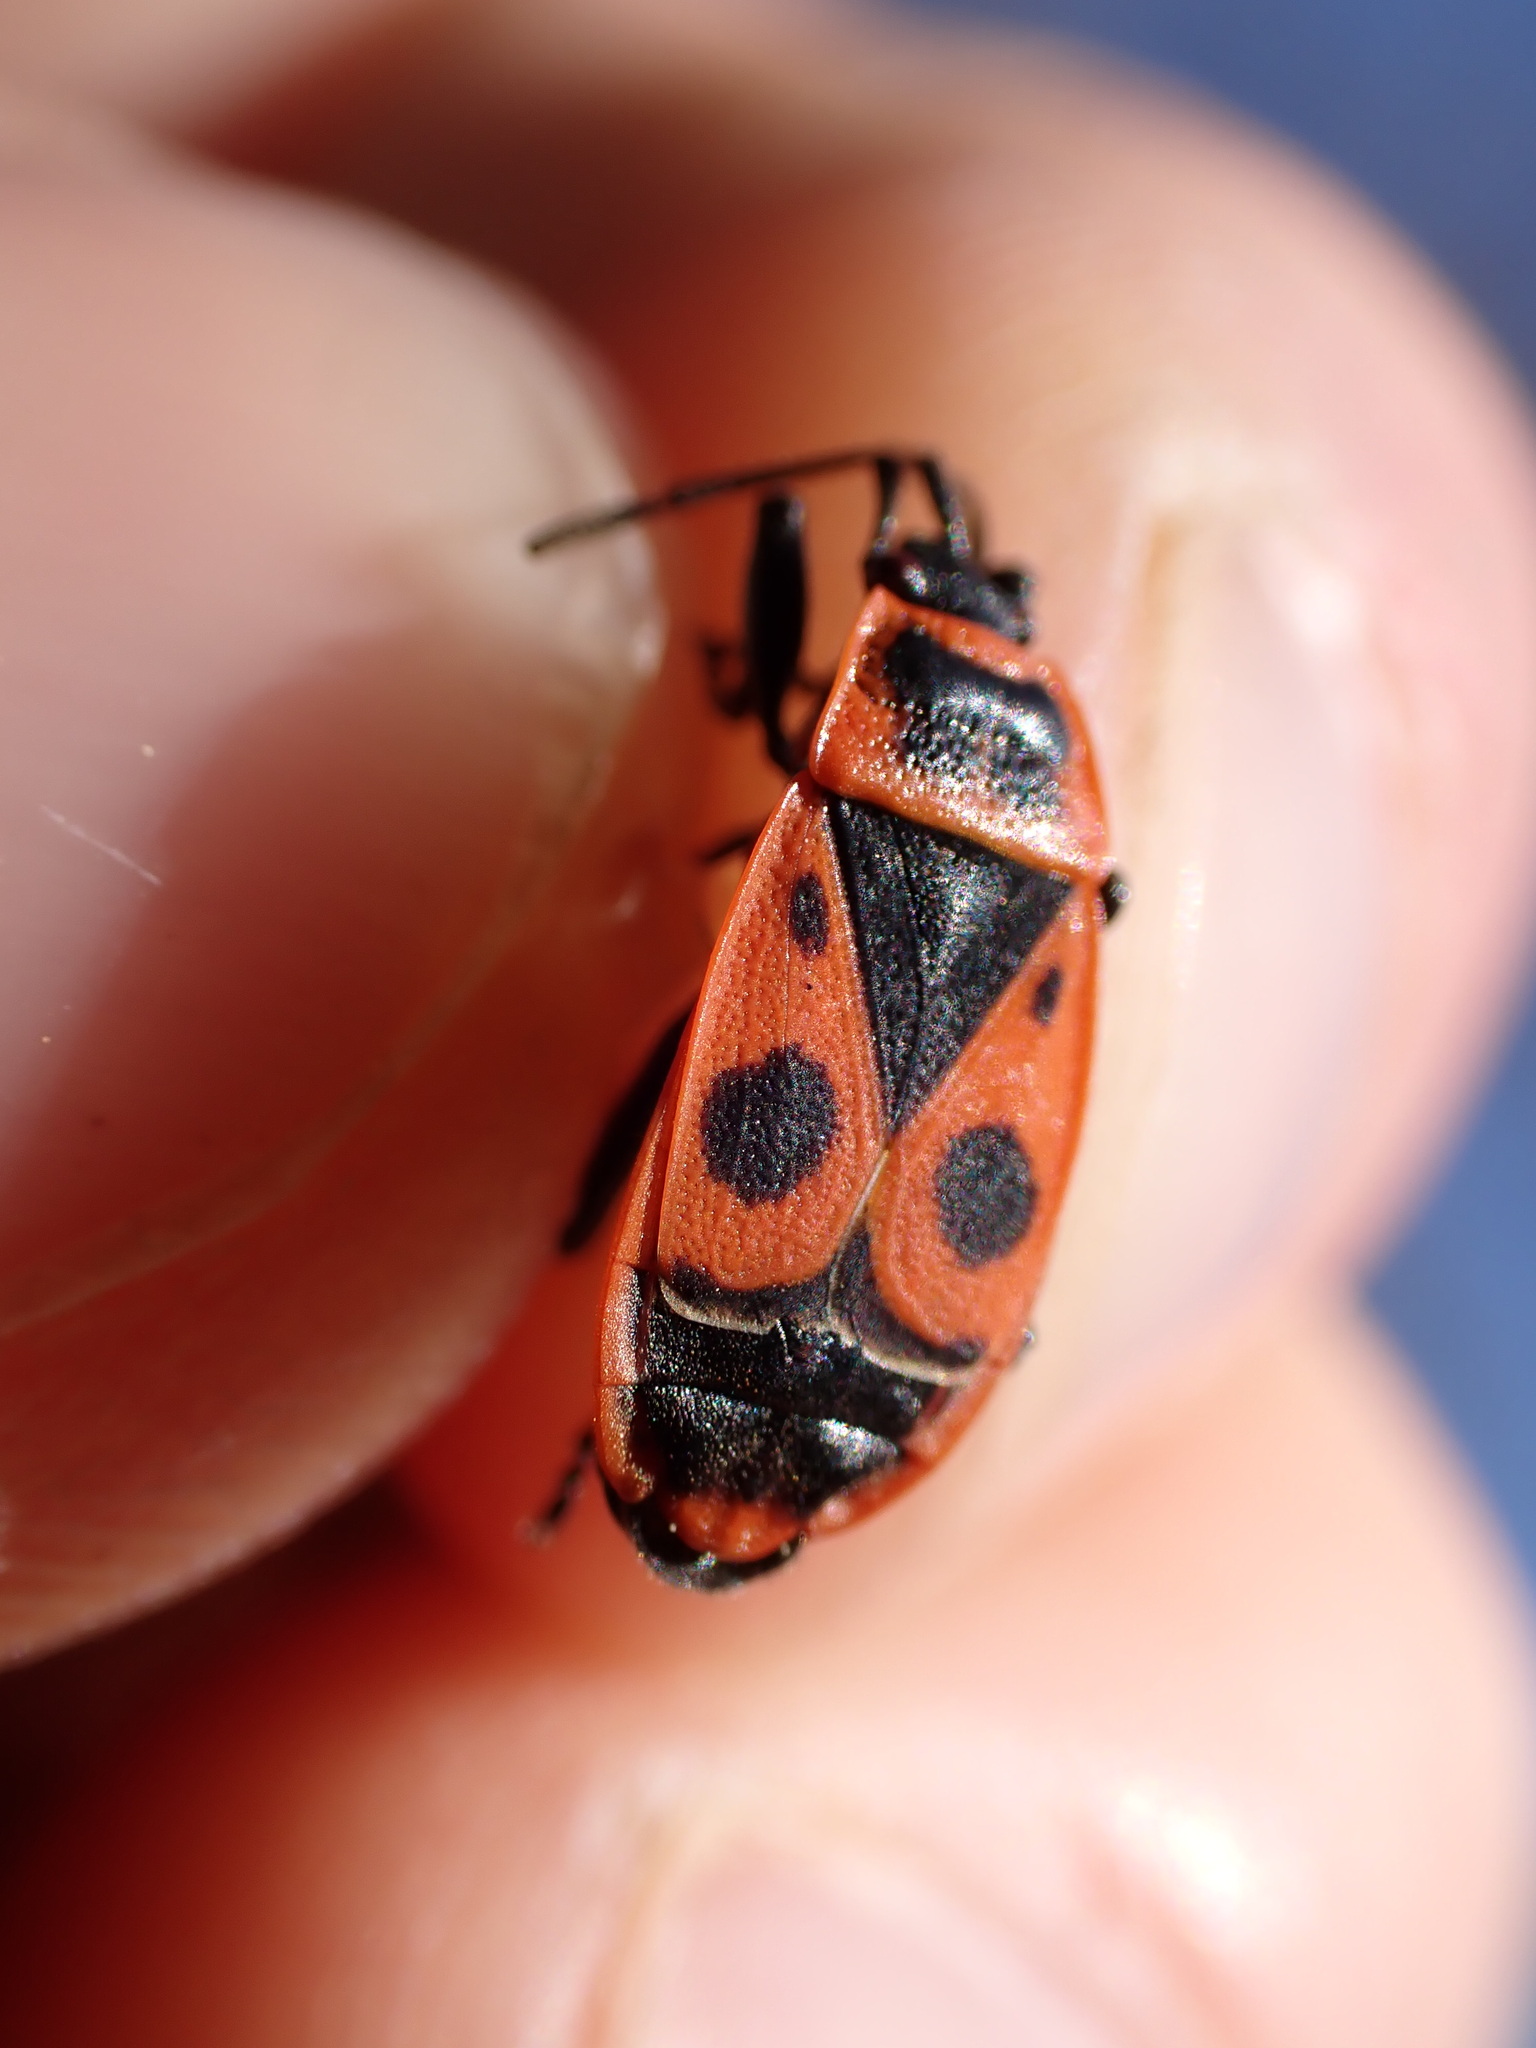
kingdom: Animalia
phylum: Arthropoda
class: Insecta
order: Hemiptera
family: Pyrrhocoridae
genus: Pyrrhocoris
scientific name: Pyrrhocoris apterus
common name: Firebug
